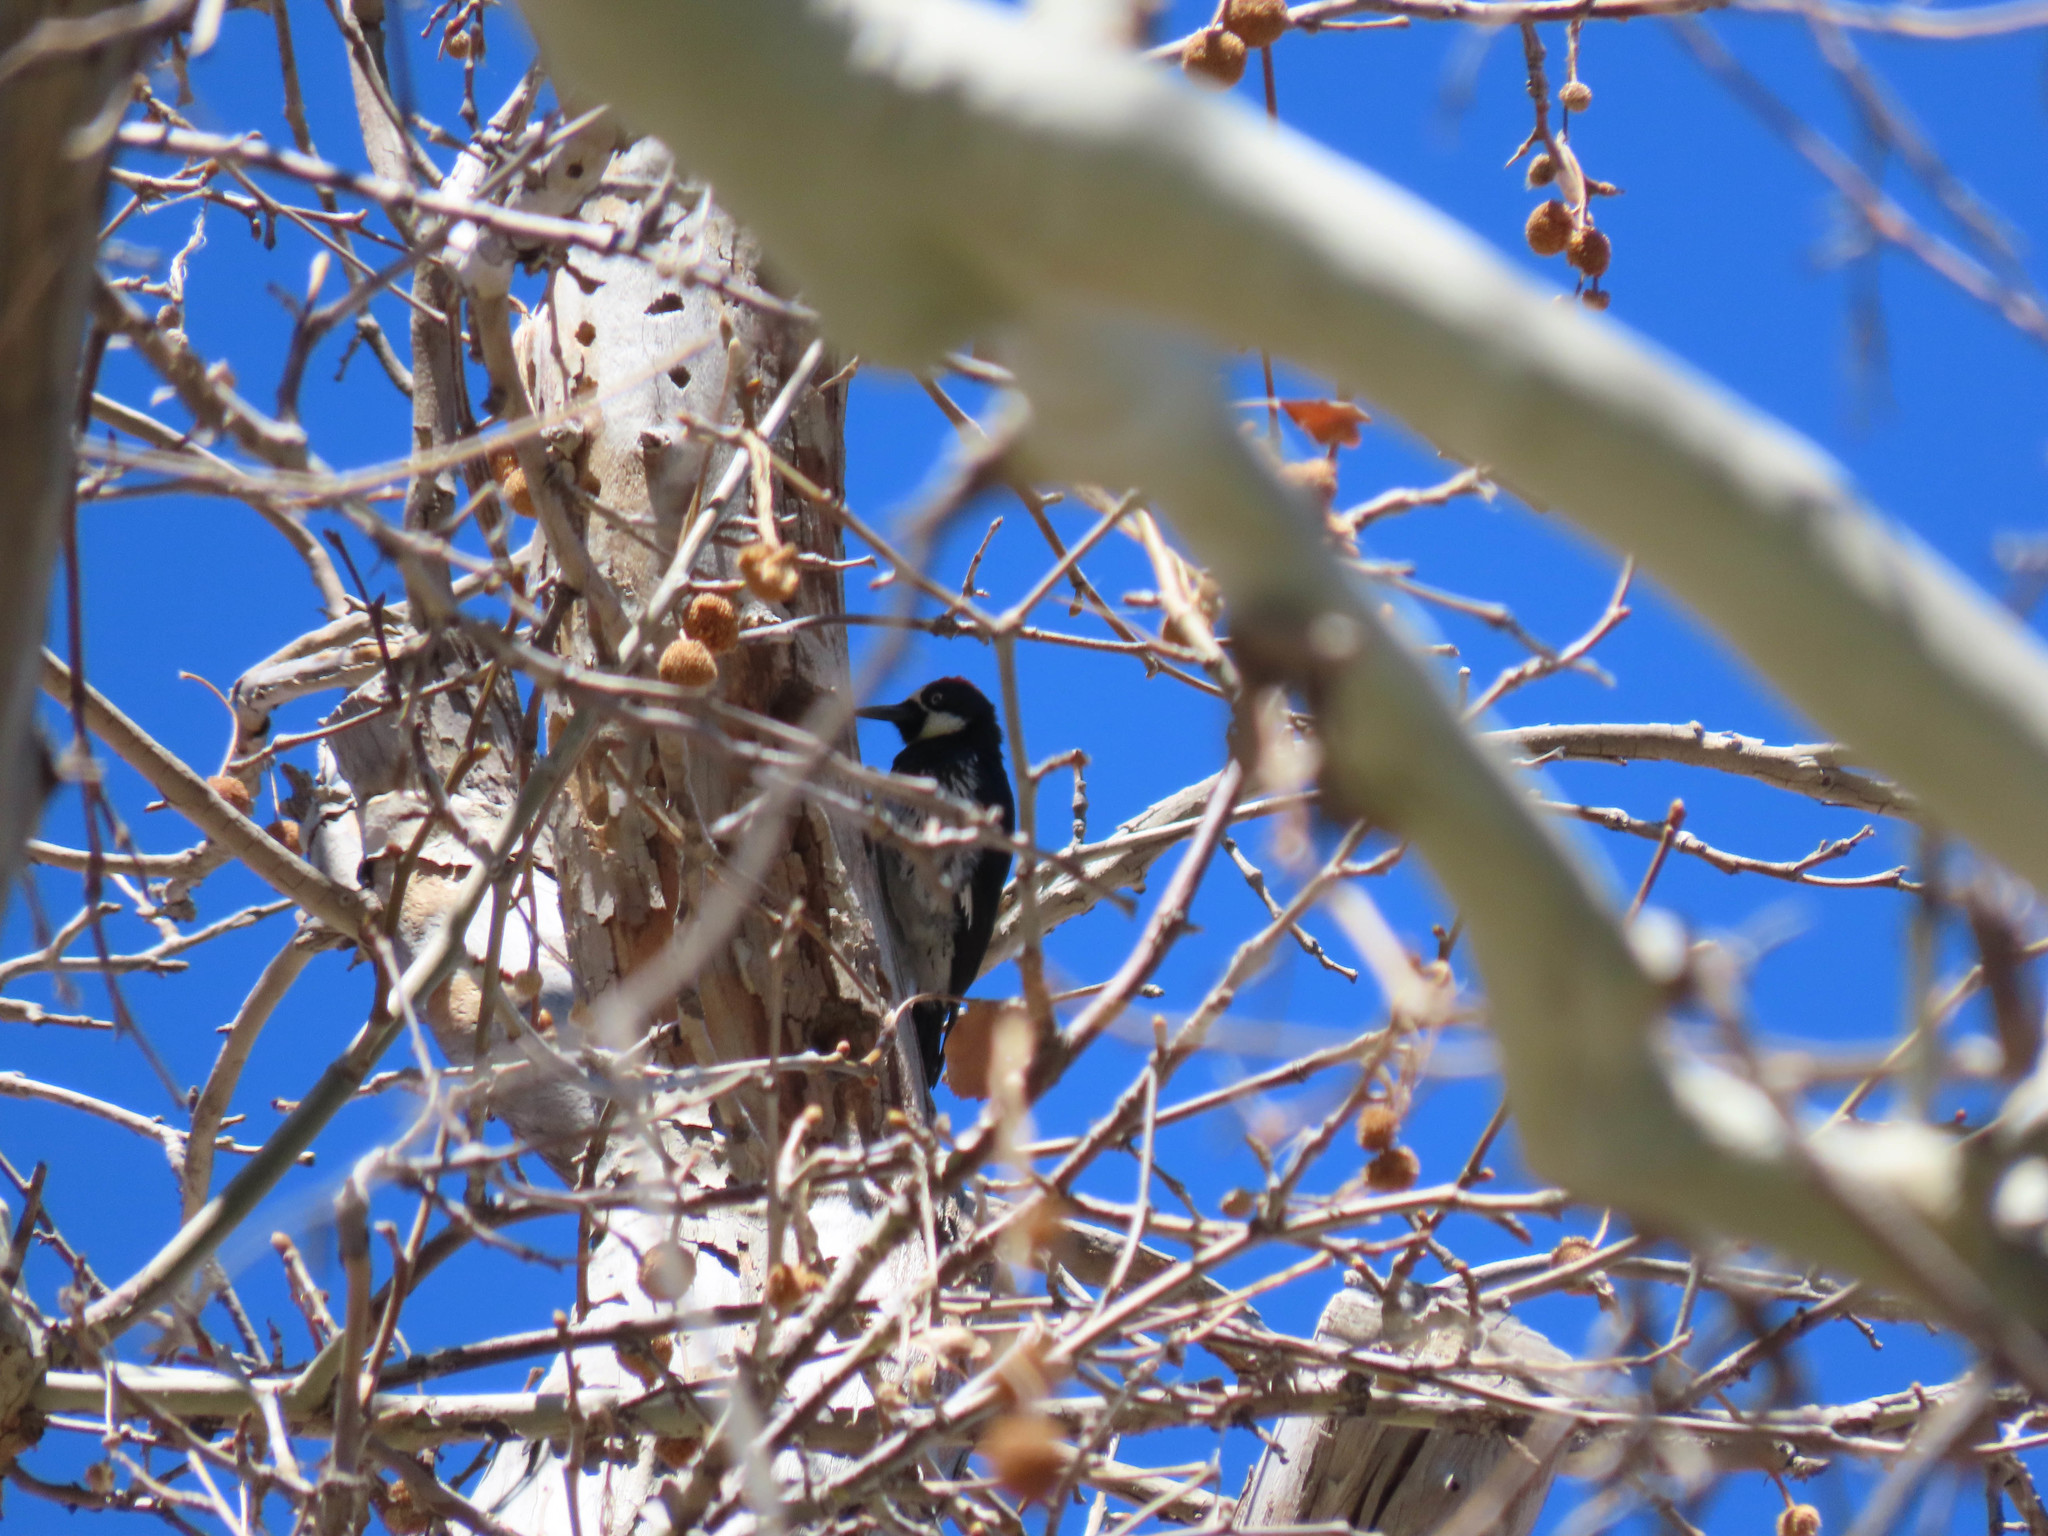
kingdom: Animalia
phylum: Chordata
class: Aves
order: Piciformes
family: Picidae
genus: Melanerpes
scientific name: Melanerpes formicivorus
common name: Acorn woodpecker
